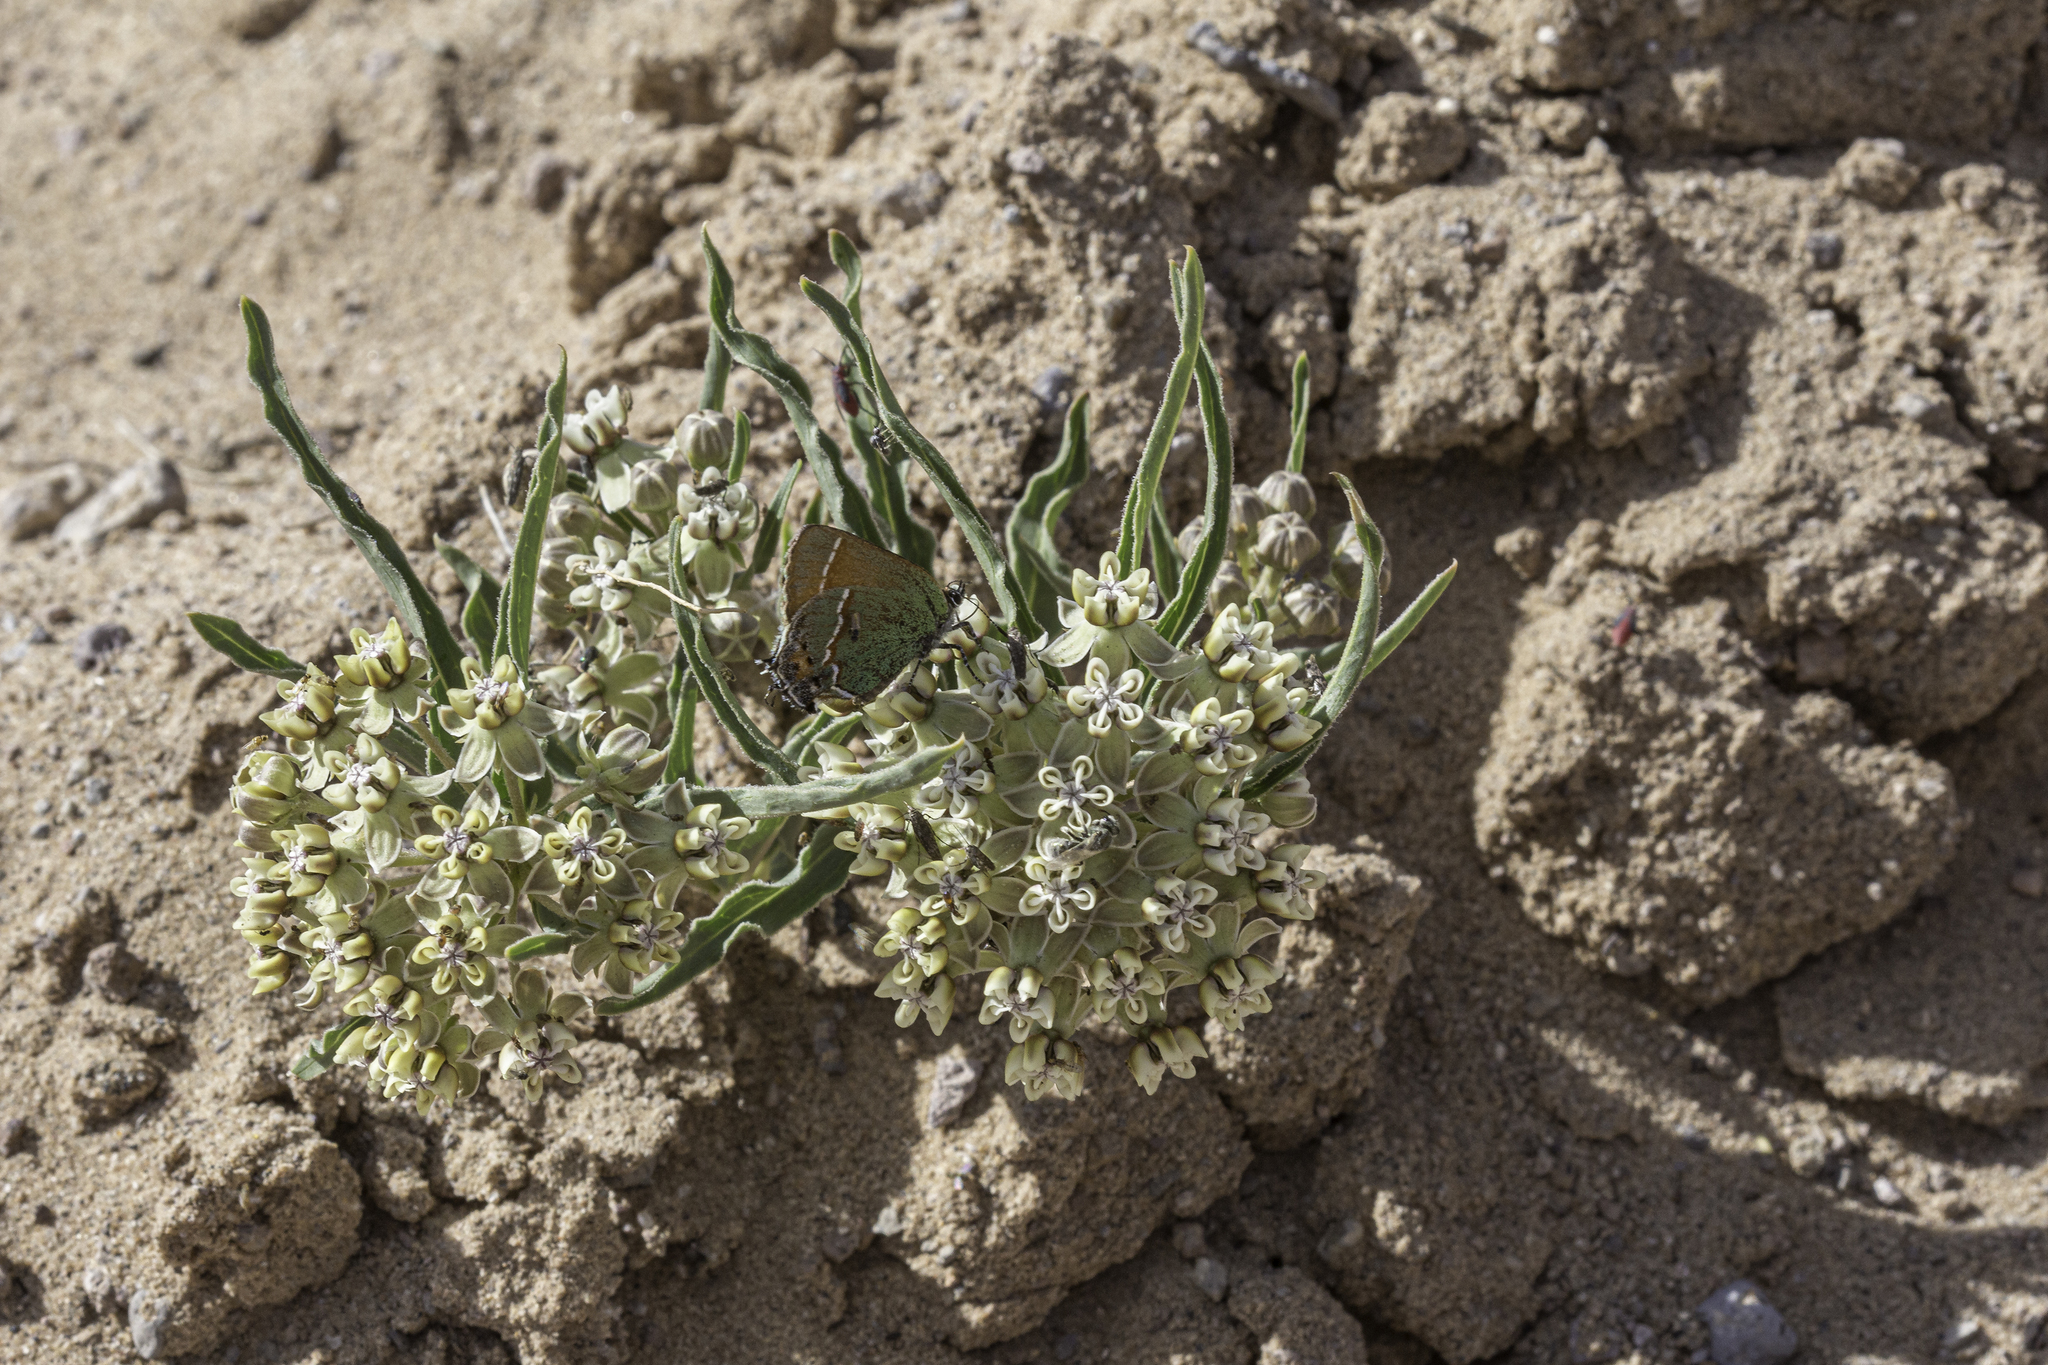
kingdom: Plantae
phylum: Tracheophyta
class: Magnoliopsida
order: Gentianales
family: Apocynaceae
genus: Asclepias
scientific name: Asclepias involucrata
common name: Dwarf milkweed
